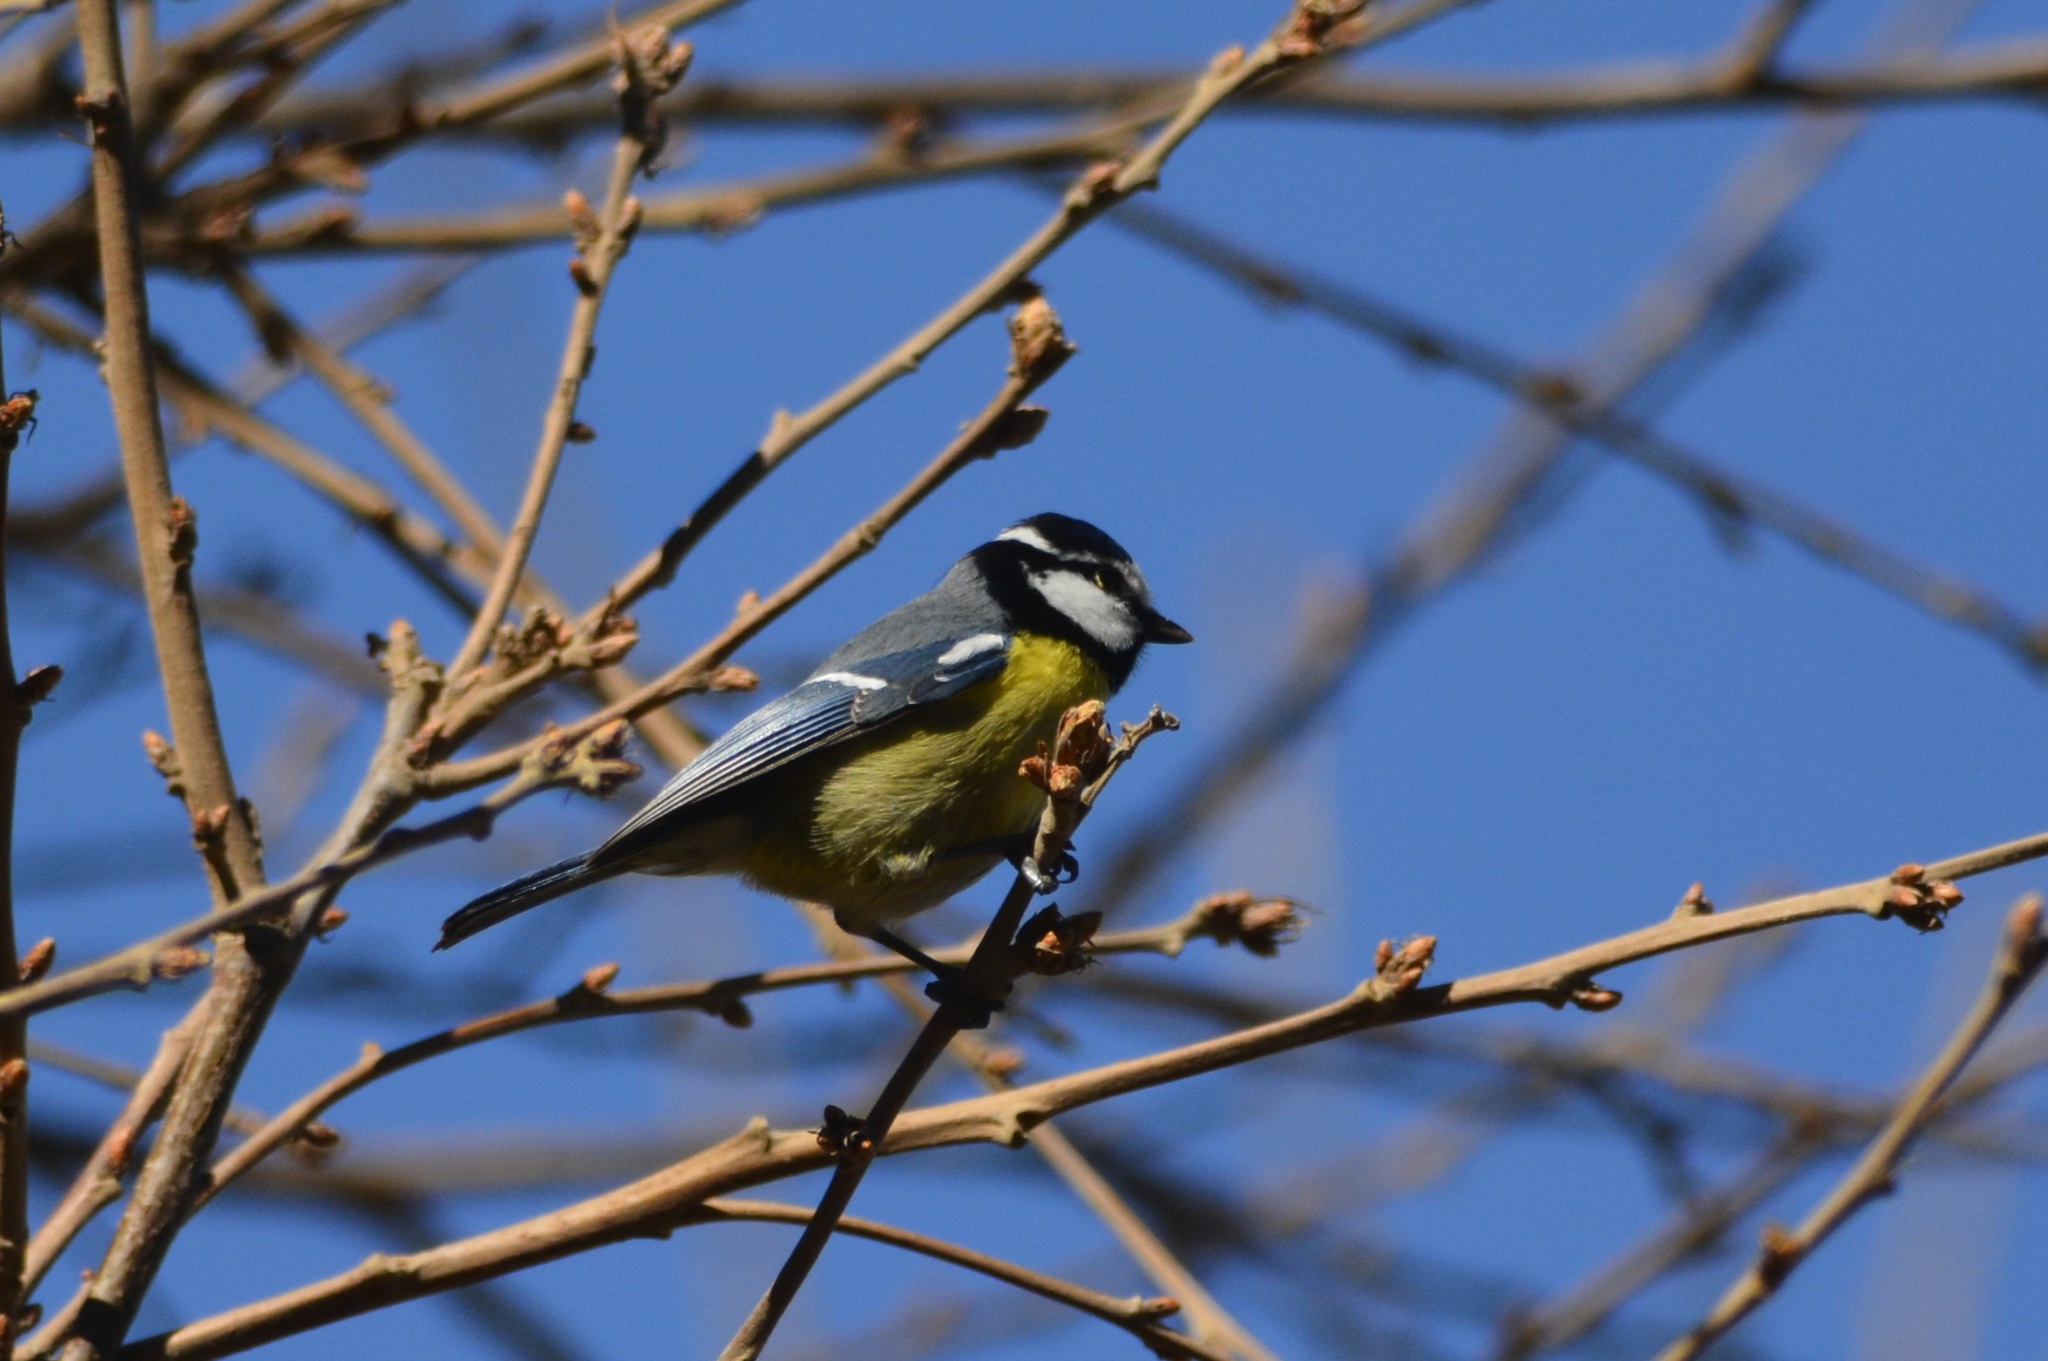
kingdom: Animalia
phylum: Chordata
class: Aves
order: Passeriformes
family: Paridae
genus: Cyanistes
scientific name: Cyanistes teneriffae
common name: African blue tit
